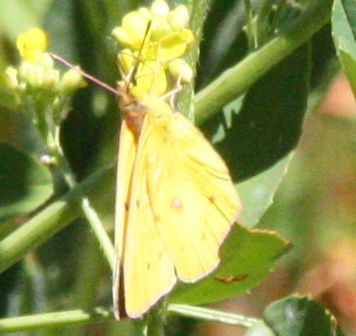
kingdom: Animalia
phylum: Arthropoda
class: Insecta
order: Lepidoptera
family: Pieridae
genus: Colias
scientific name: Colias eurytheme
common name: Alfalfa butterfly
